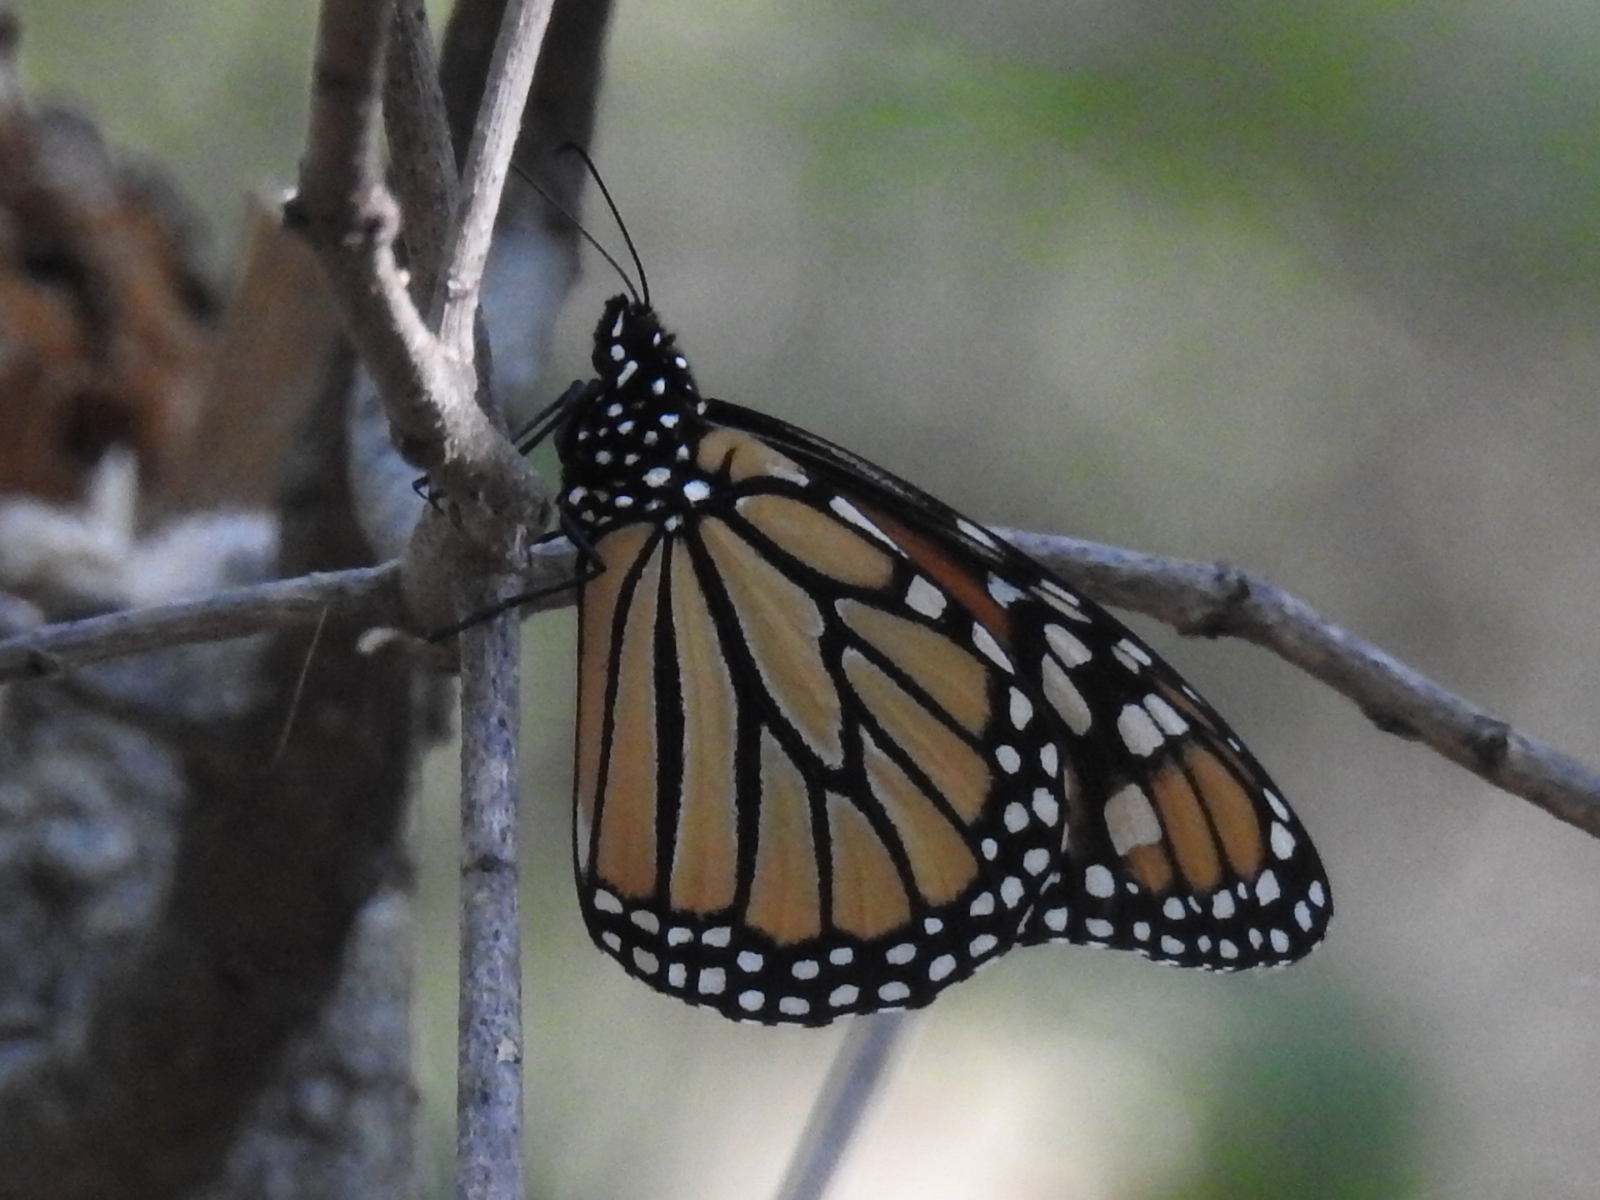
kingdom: Animalia
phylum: Arthropoda
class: Insecta
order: Lepidoptera
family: Nymphalidae
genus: Danaus
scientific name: Danaus plexippus
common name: Monarch
